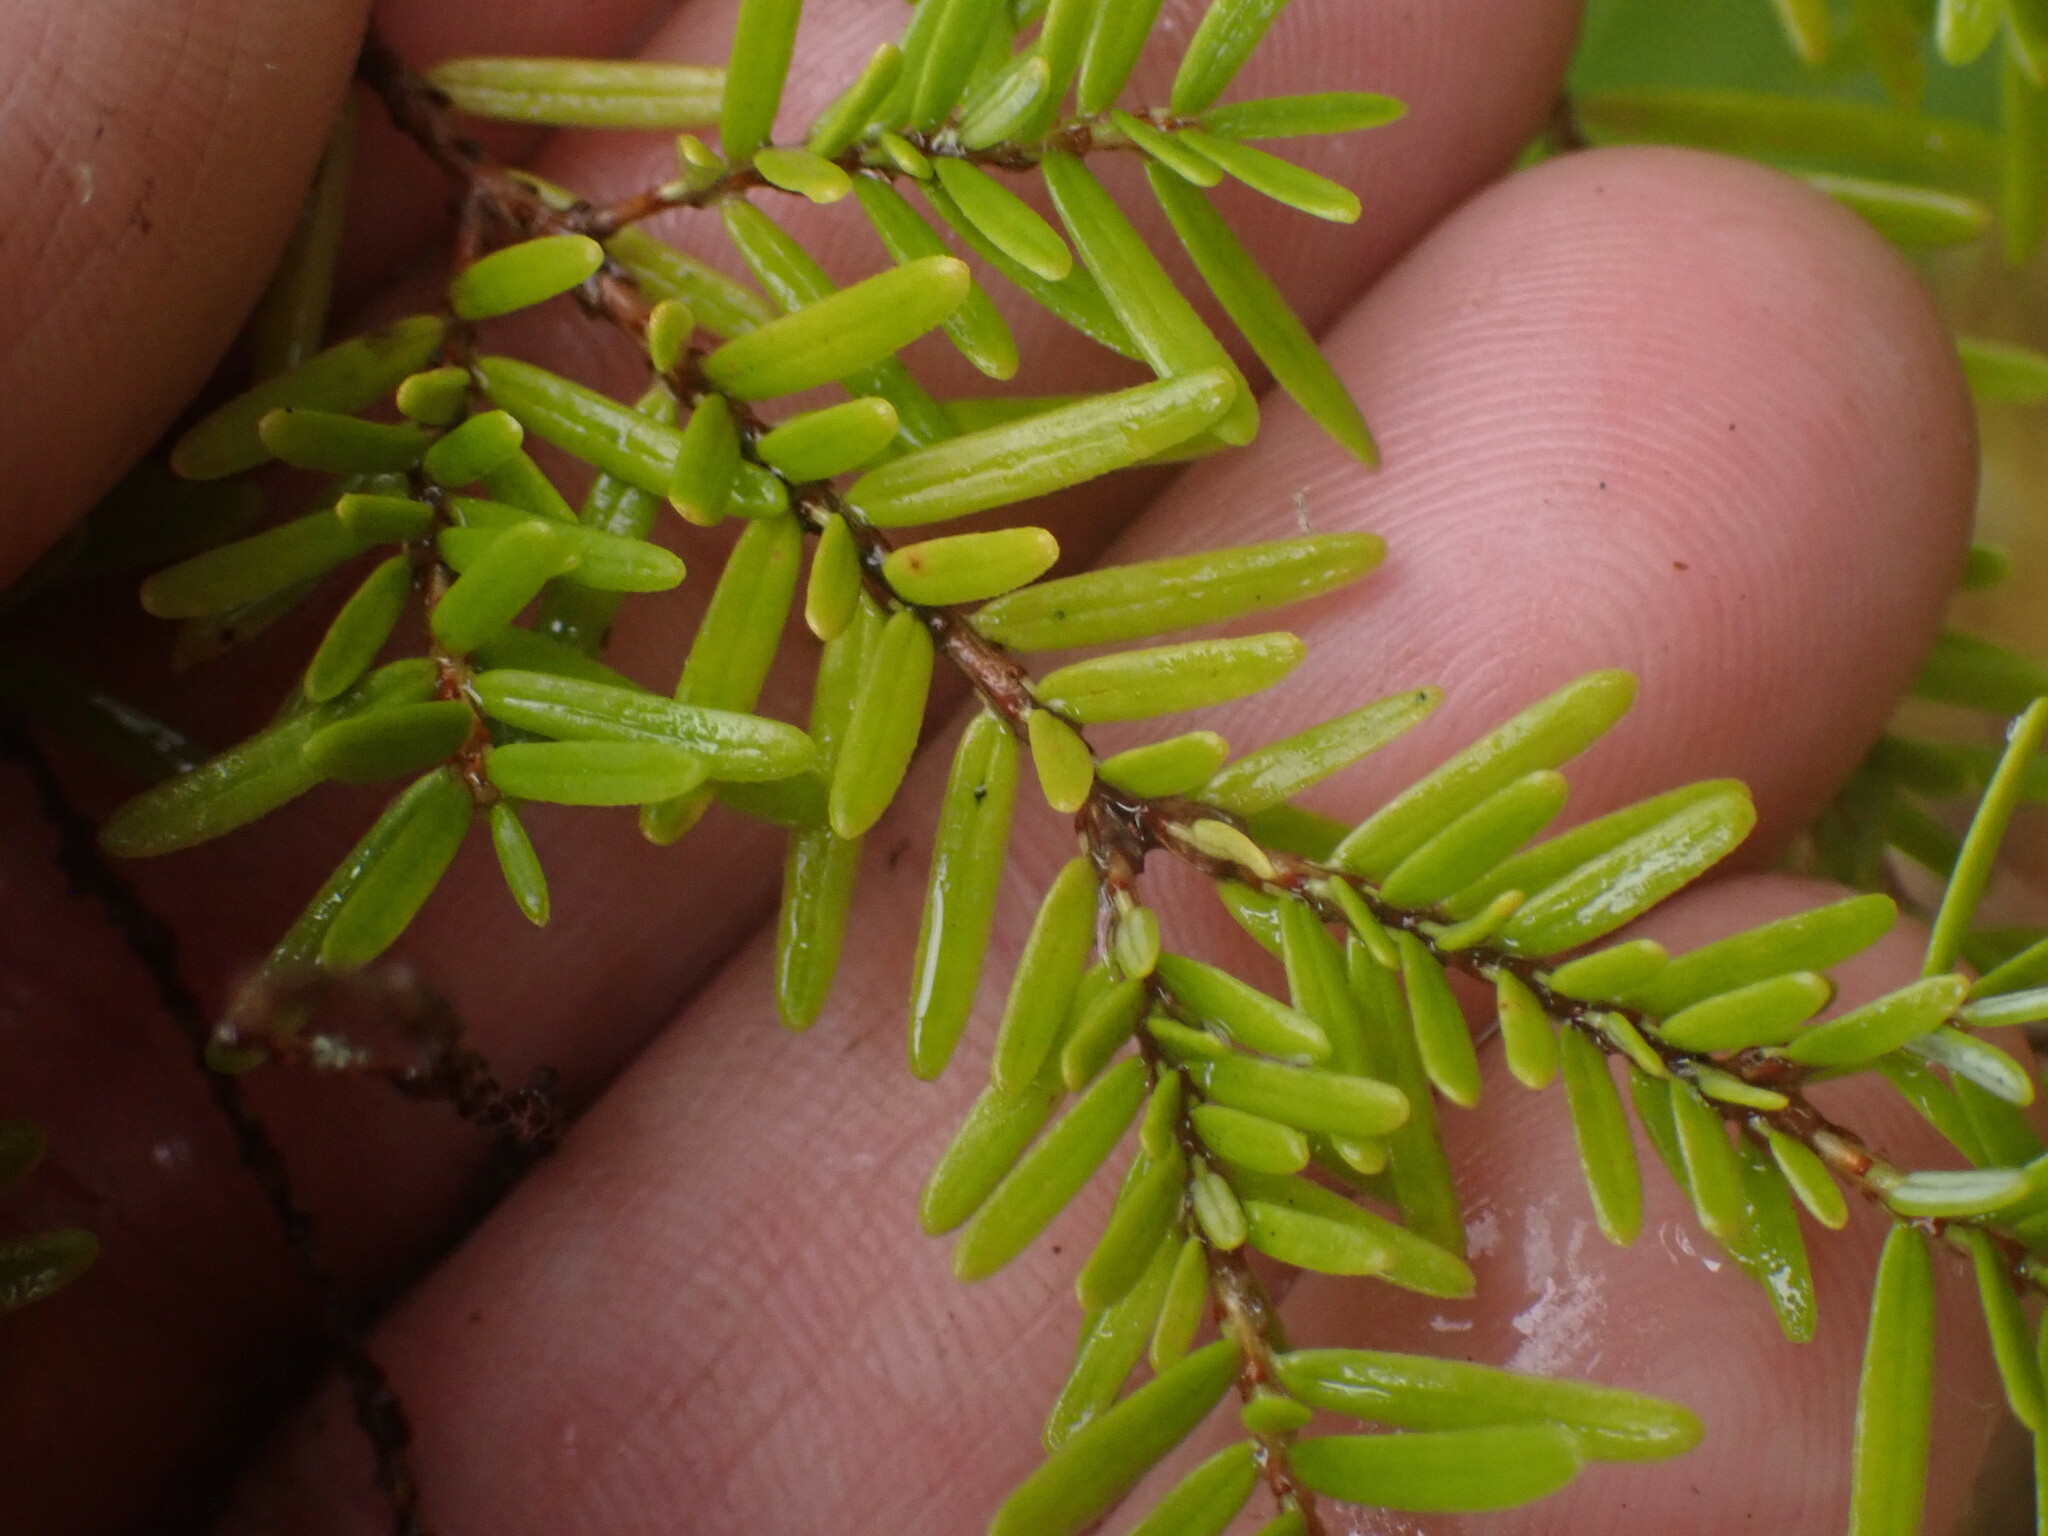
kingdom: Plantae
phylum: Tracheophyta
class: Pinopsida
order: Pinales
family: Pinaceae
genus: Tsuga
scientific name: Tsuga heterophylla
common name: Western hemlock
